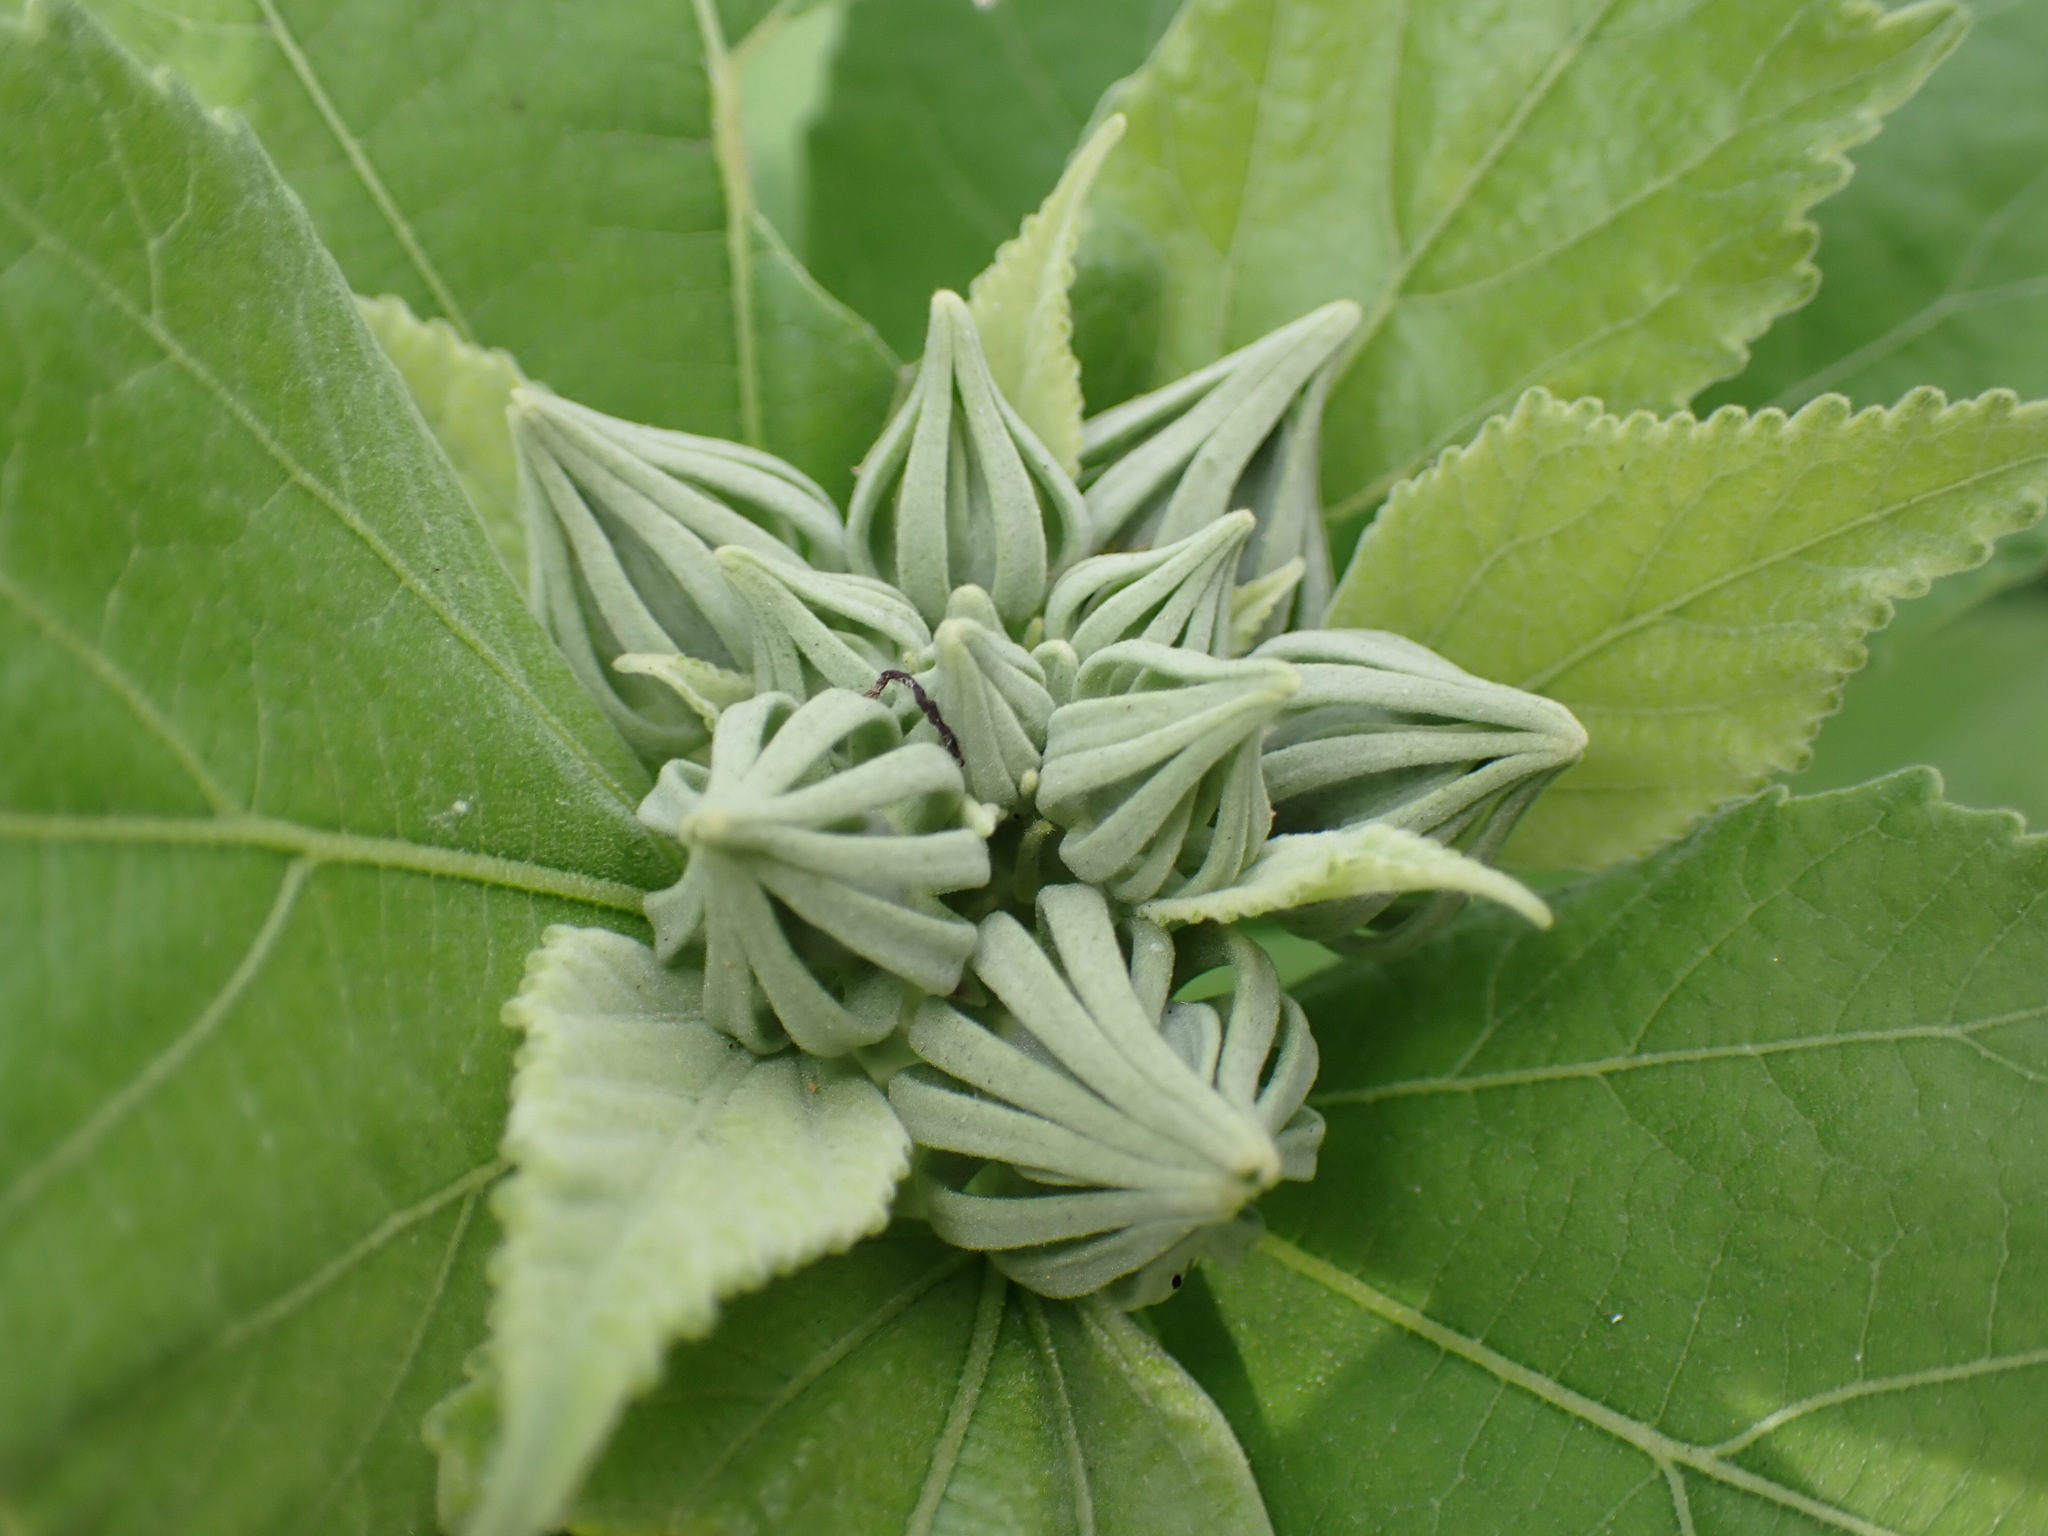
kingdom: Plantae
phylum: Tracheophyta
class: Magnoliopsida
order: Malvales
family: Malvaceae
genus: Hibiscus
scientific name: Hibiscus moscheutos
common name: Common rose-mallow
